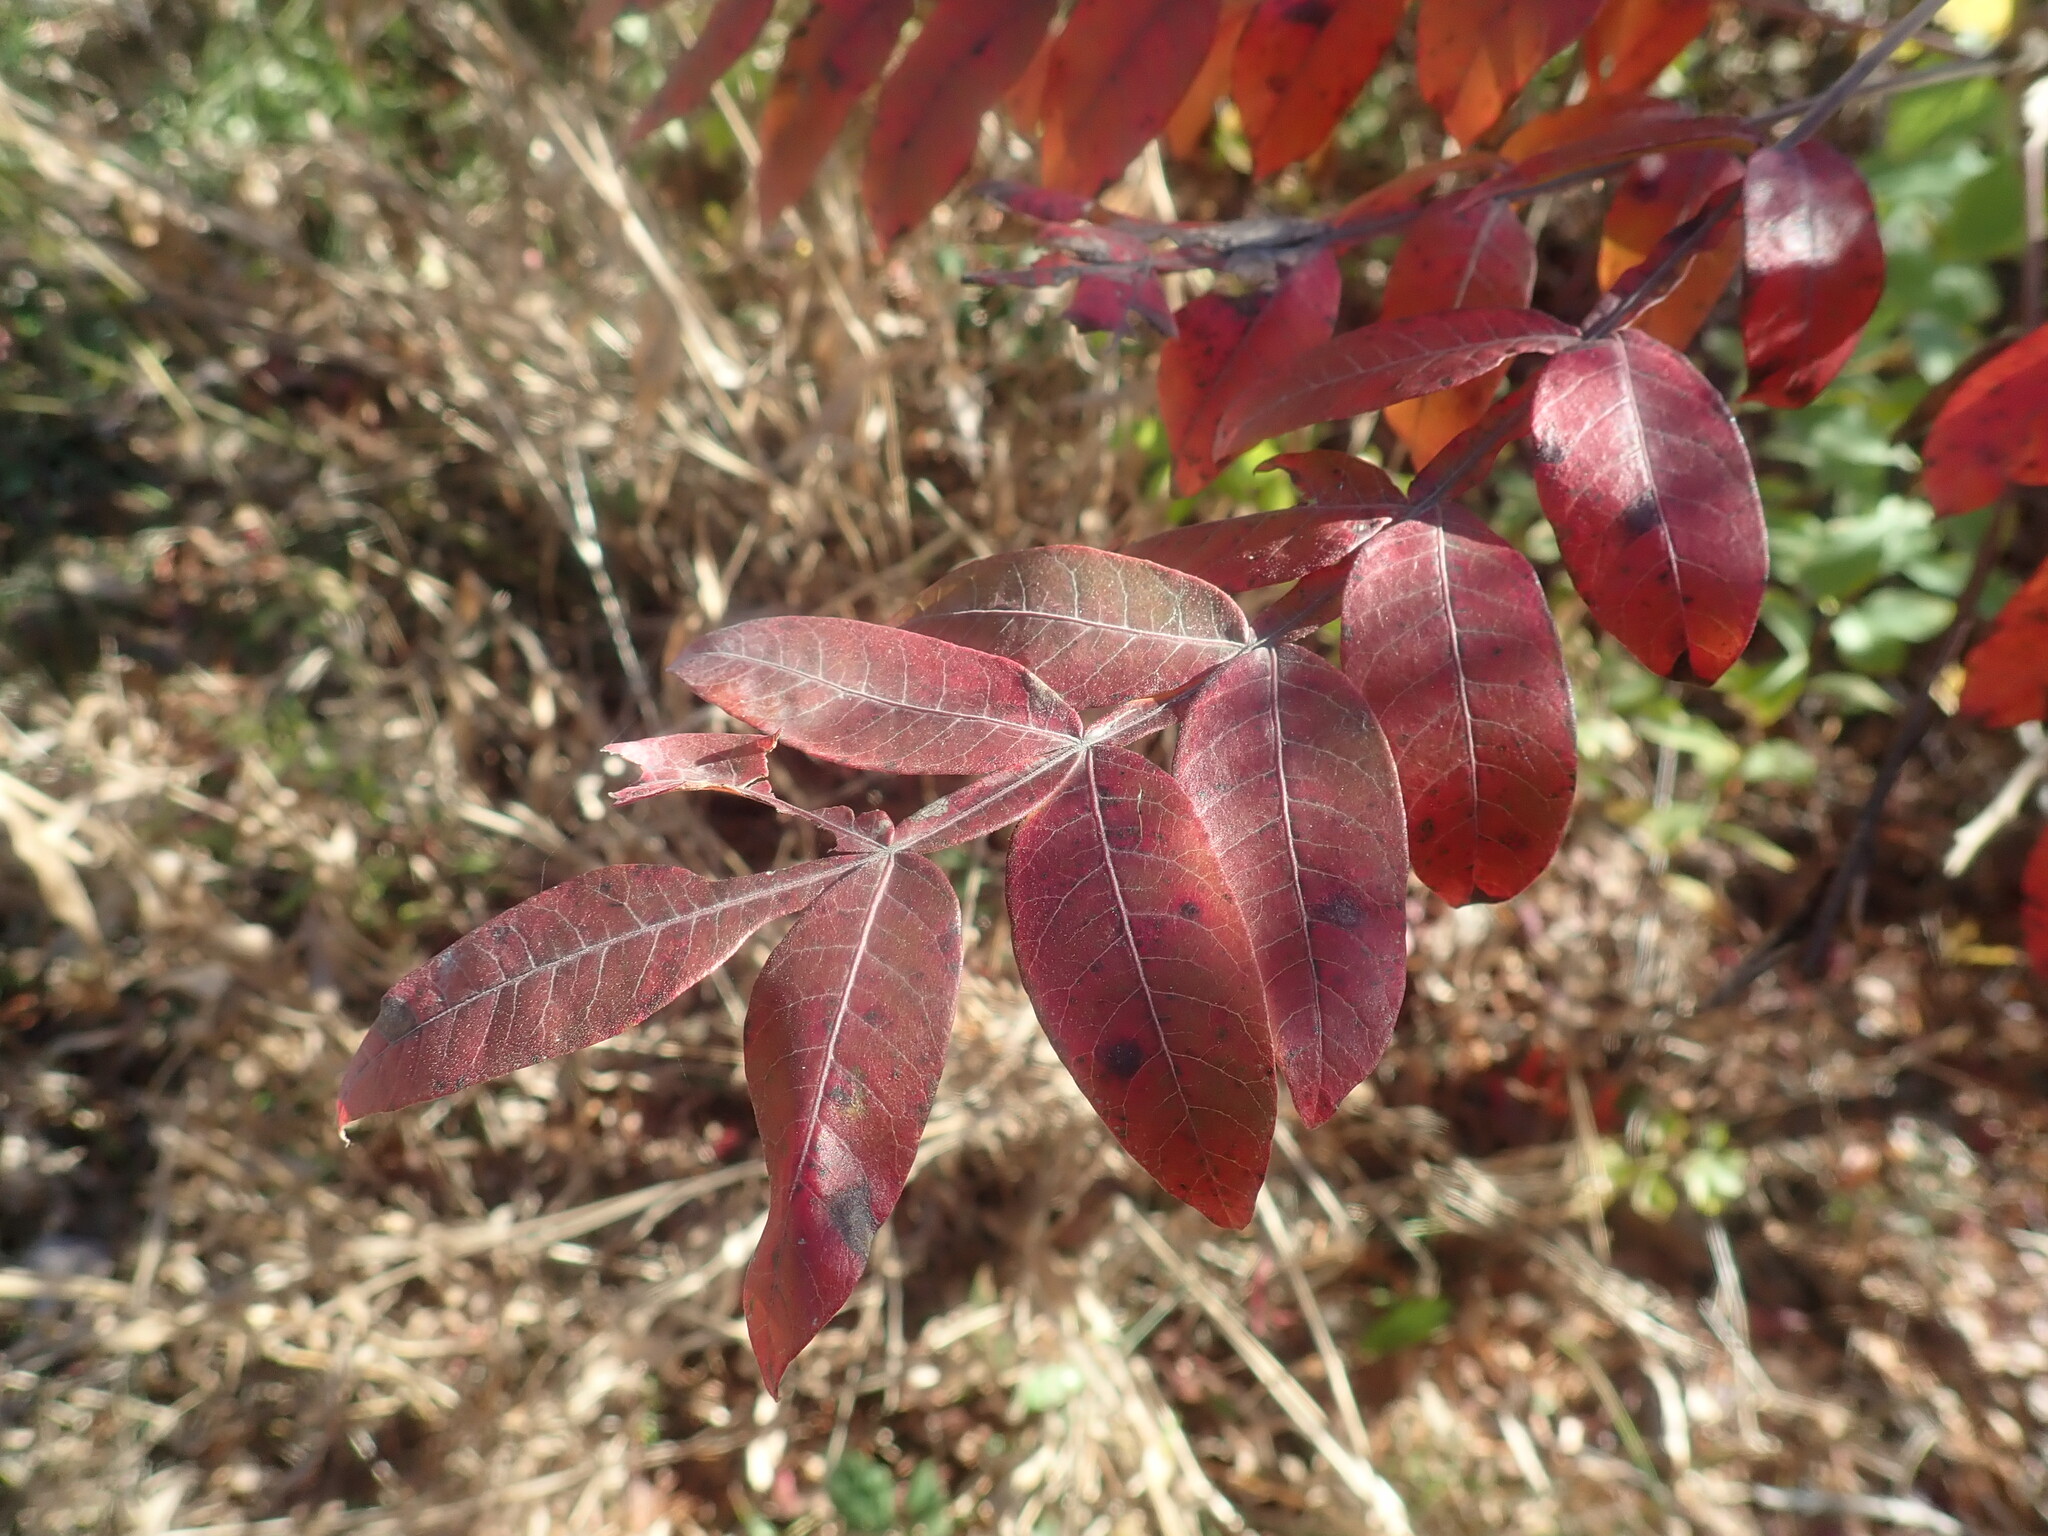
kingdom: Plantae
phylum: Tracheophyta
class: Magnoliopsida
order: Sapindales
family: Anacardiaceae
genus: Rhus
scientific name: Rhus copallina
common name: Shining sumac
